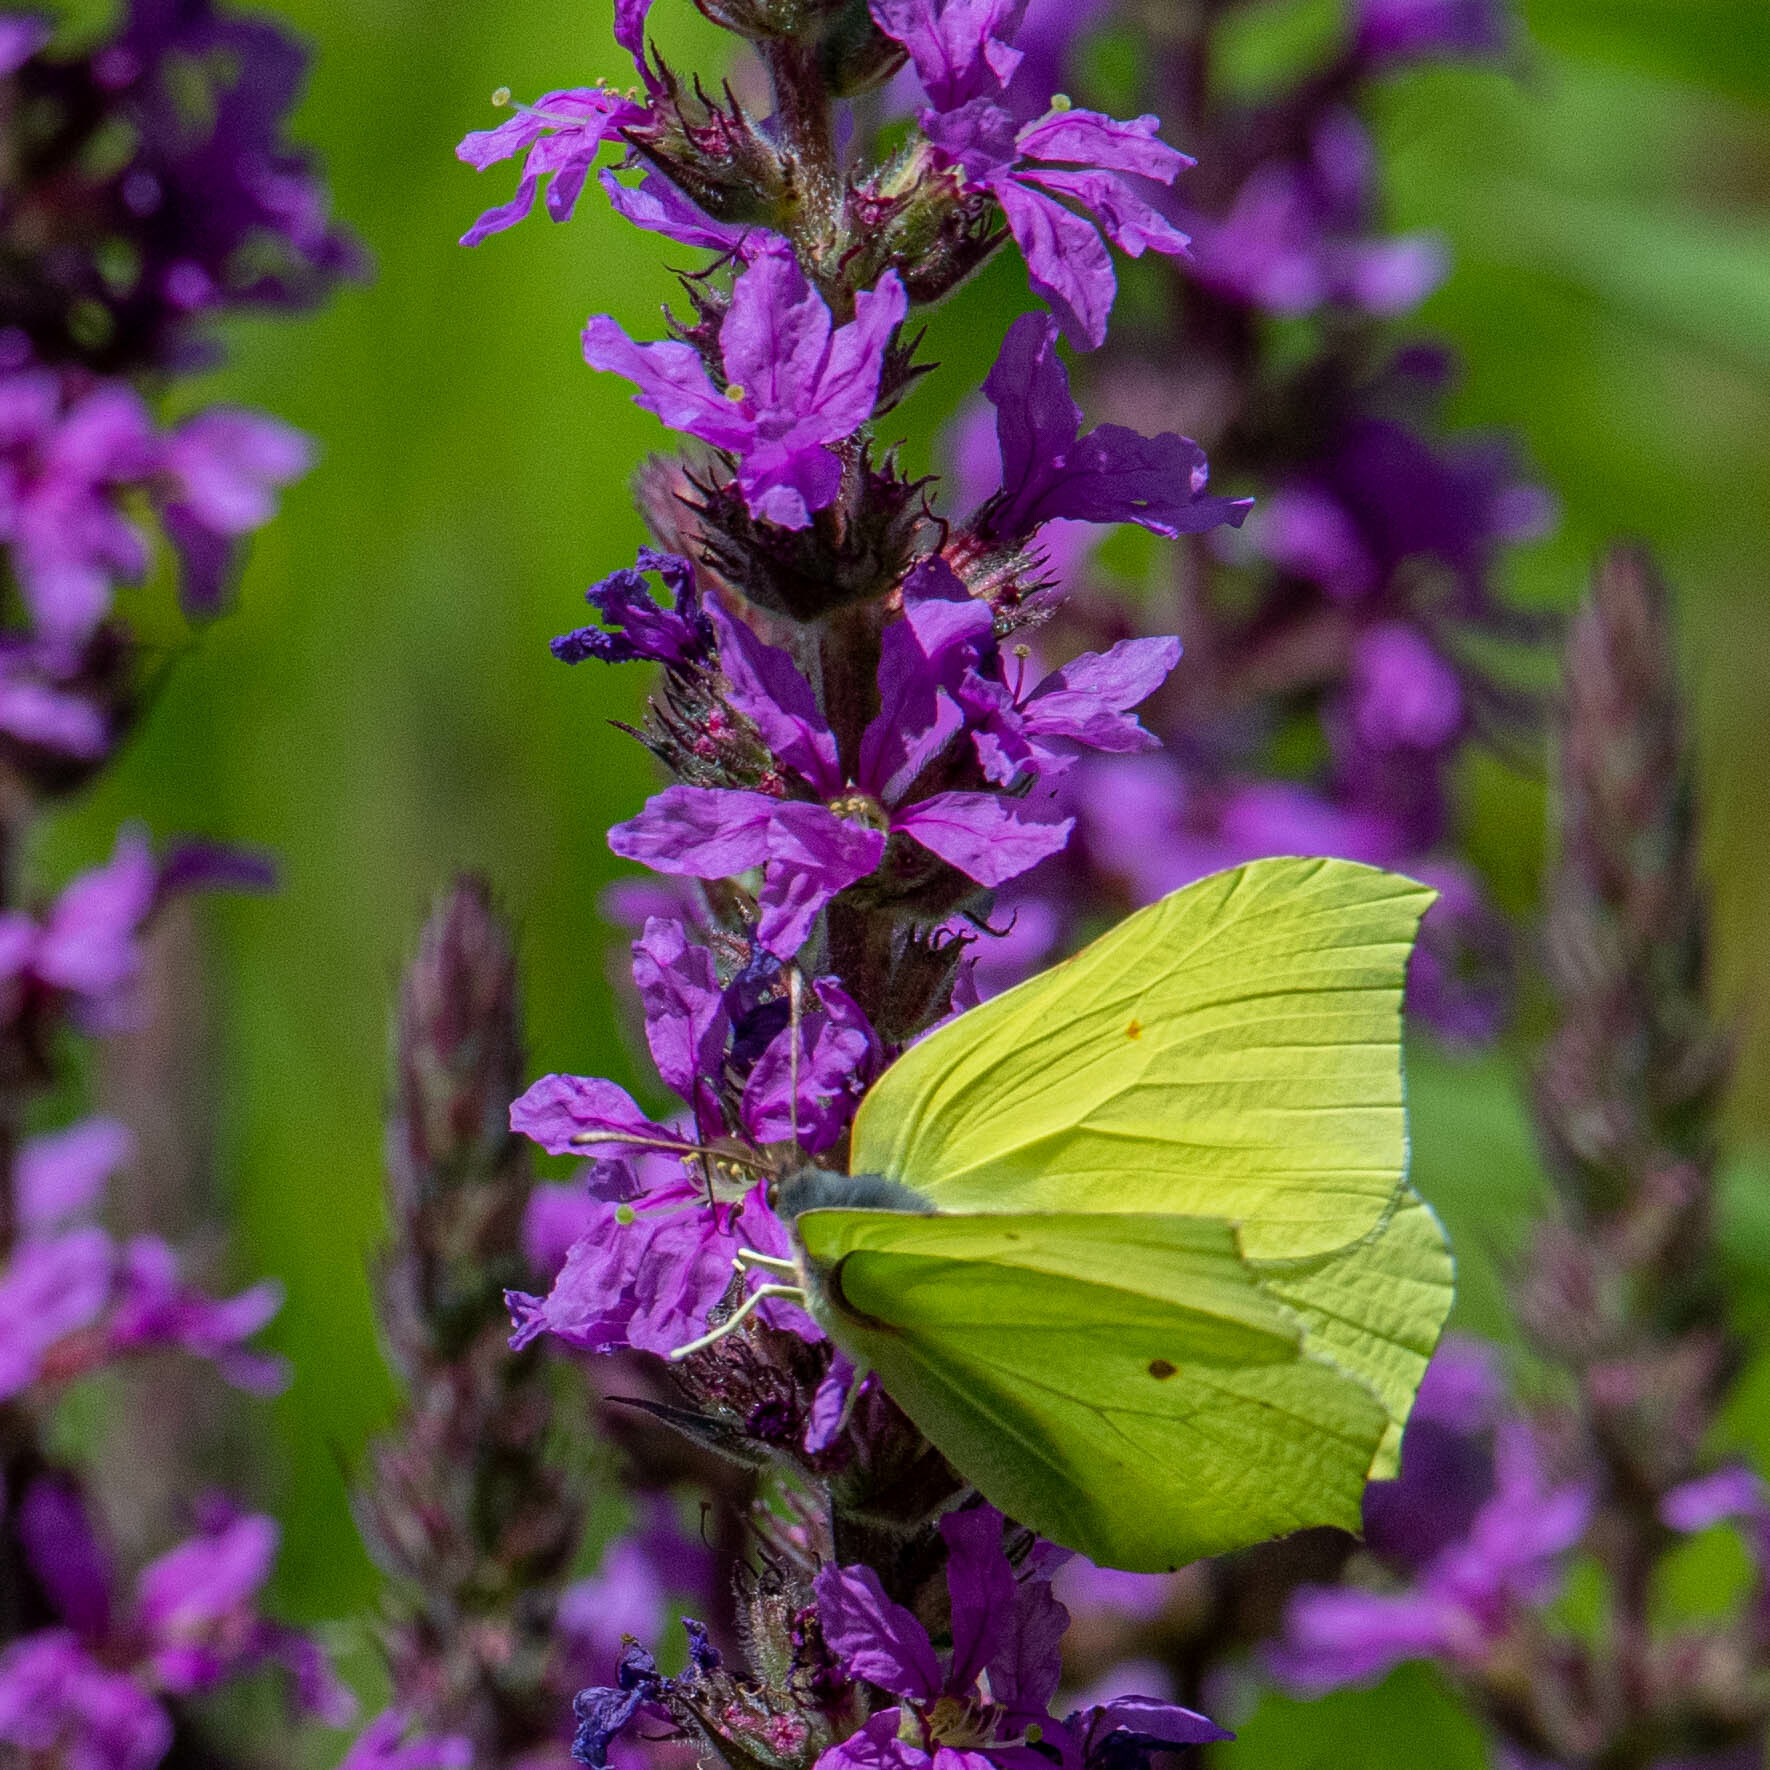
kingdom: Animalia
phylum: Arthropoda
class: Insecta
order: Lepidoptera
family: Pieridae
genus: Gonepteryx
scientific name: Gonepteryx rhamni
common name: Brimstone
